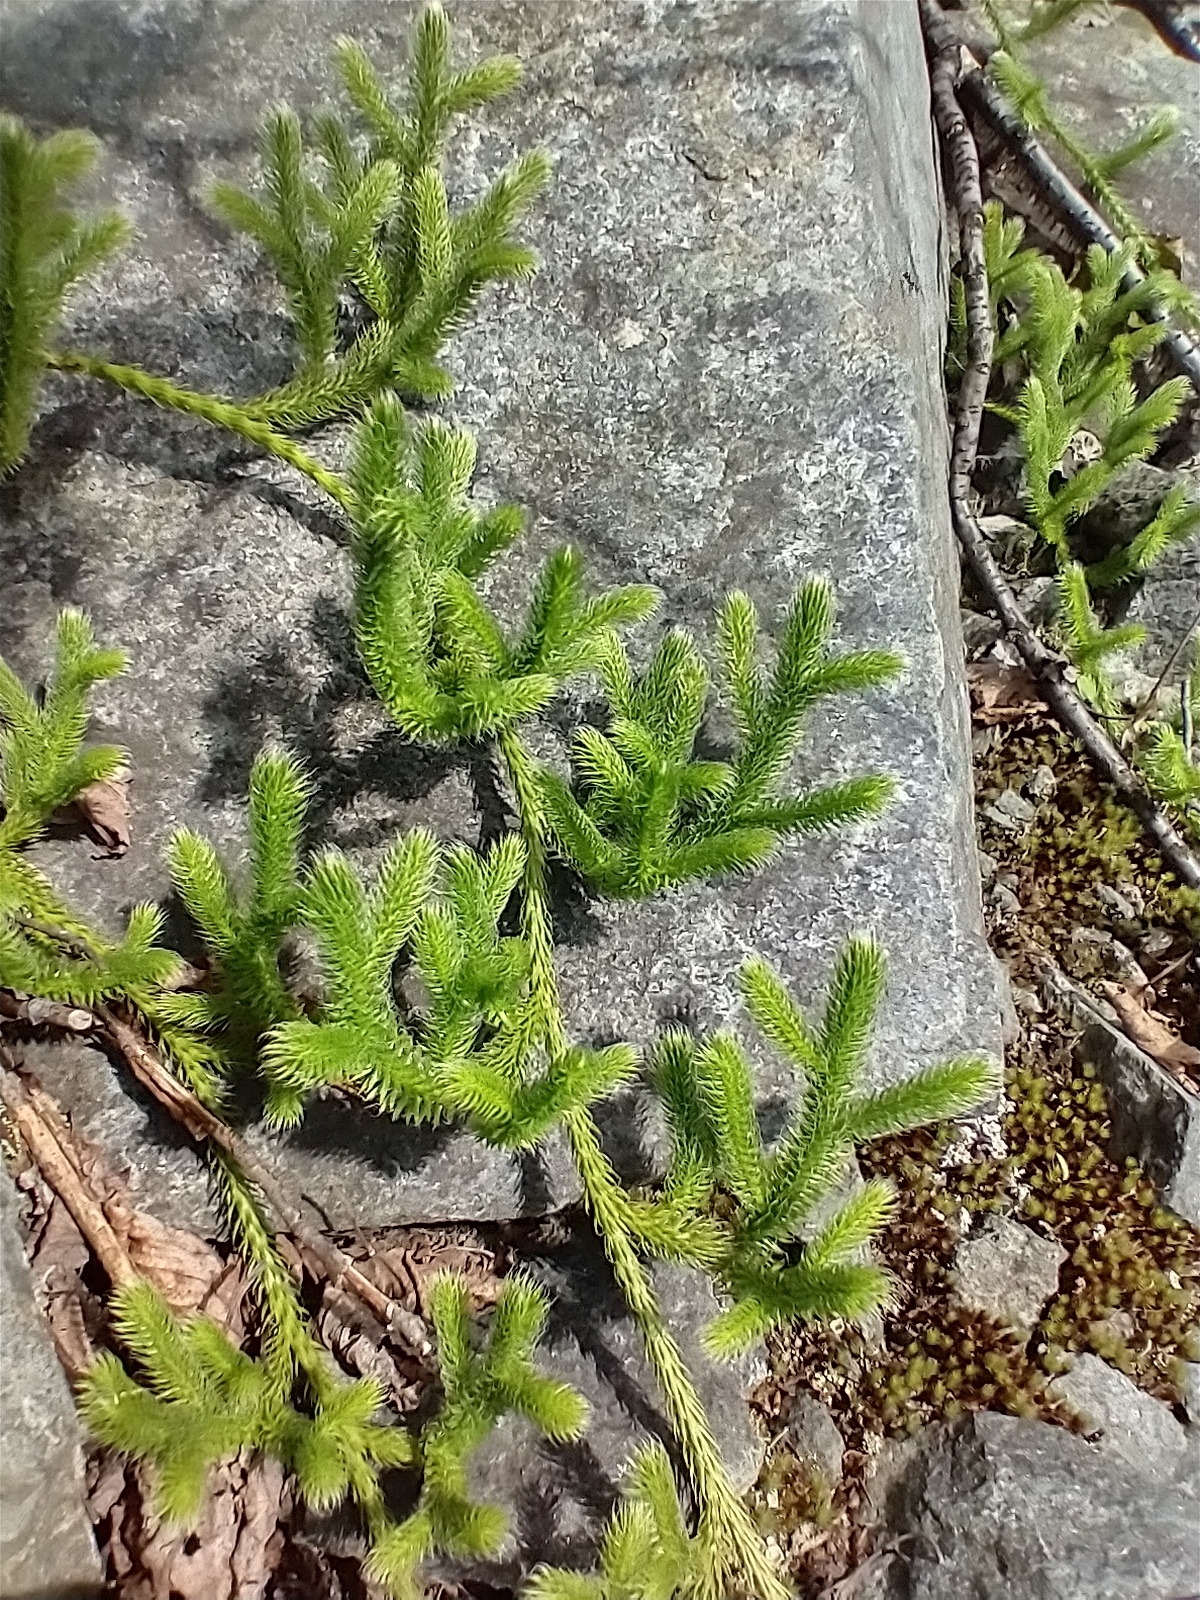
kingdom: Plantae
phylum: Tracheophyta
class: Lycopodiopsida
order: Lycopodiales
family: Lycopodiaceae
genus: Lycopodium
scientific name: Lycopodium clavatum
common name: Stag's-horn clubmoss
